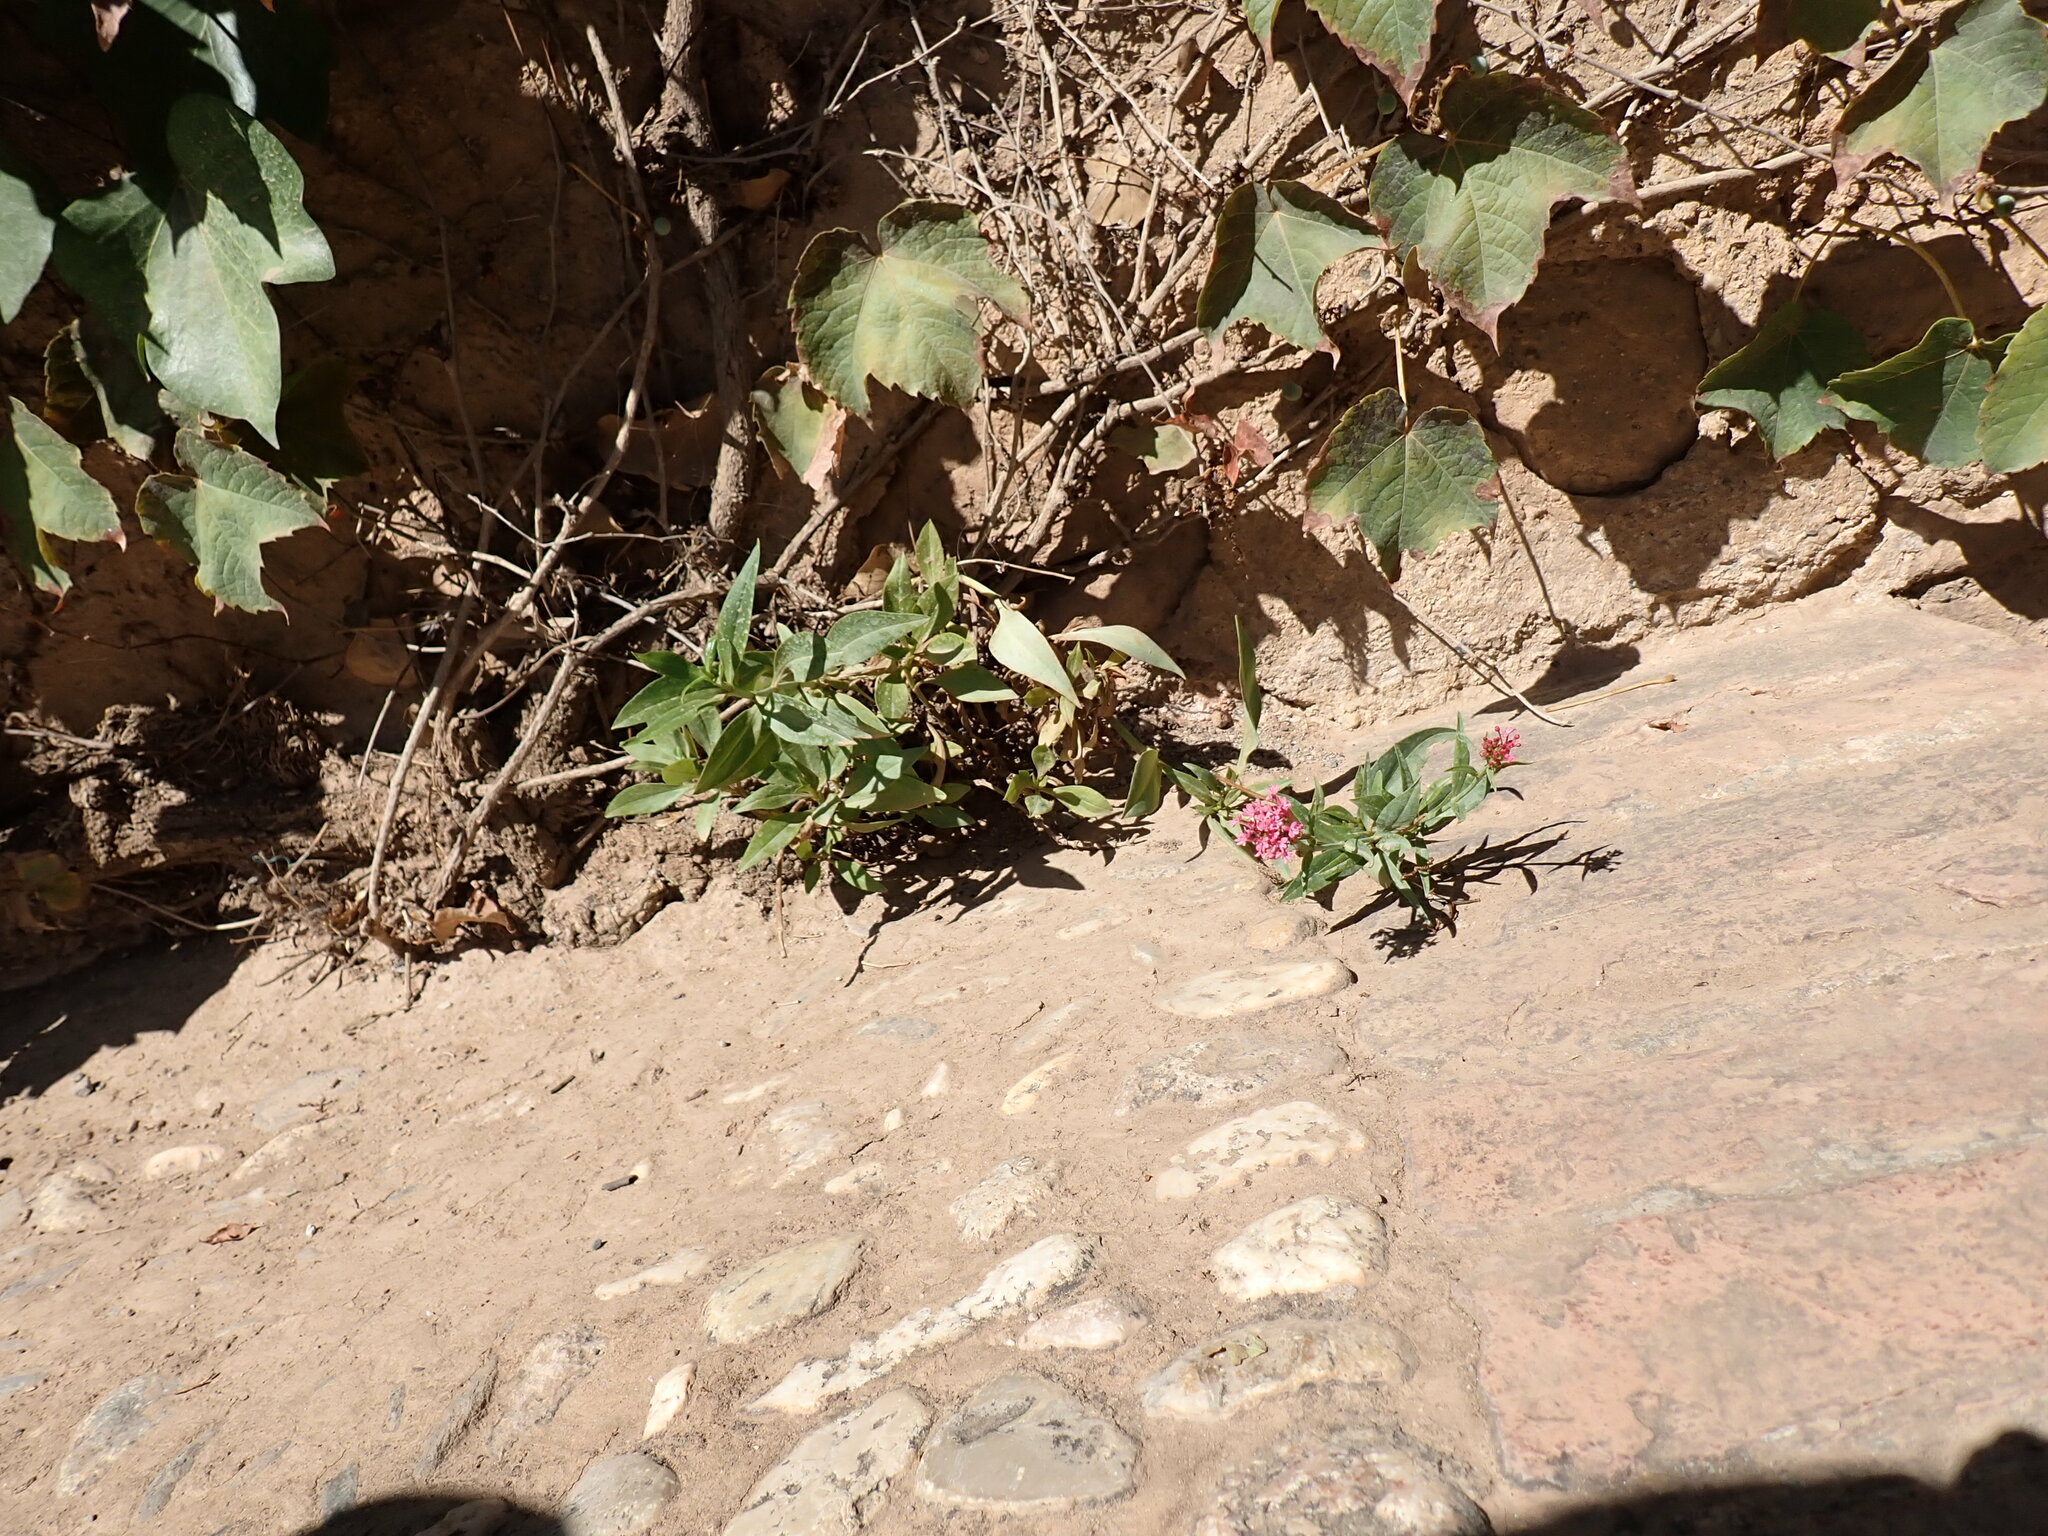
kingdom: Plantae
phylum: Tracheophyta
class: Magnoliopsida
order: Dipsacales
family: Caprifoliaceae
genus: Centranthus
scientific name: Centranthus ruber
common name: Red valerian
